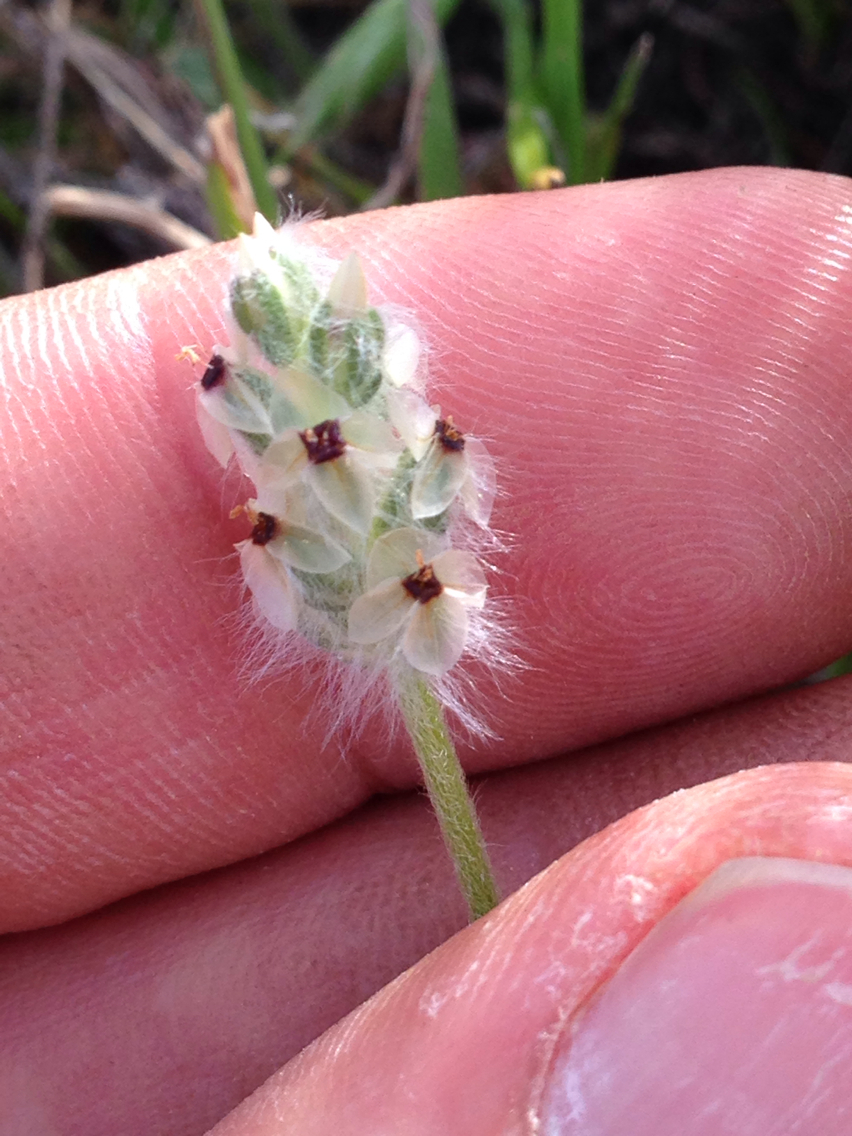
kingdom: Plantae
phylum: Tracheophyta
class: Magnoliopsida
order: Lamiales
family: Plantaginaceae
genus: Plantago
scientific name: Plantago erecta
